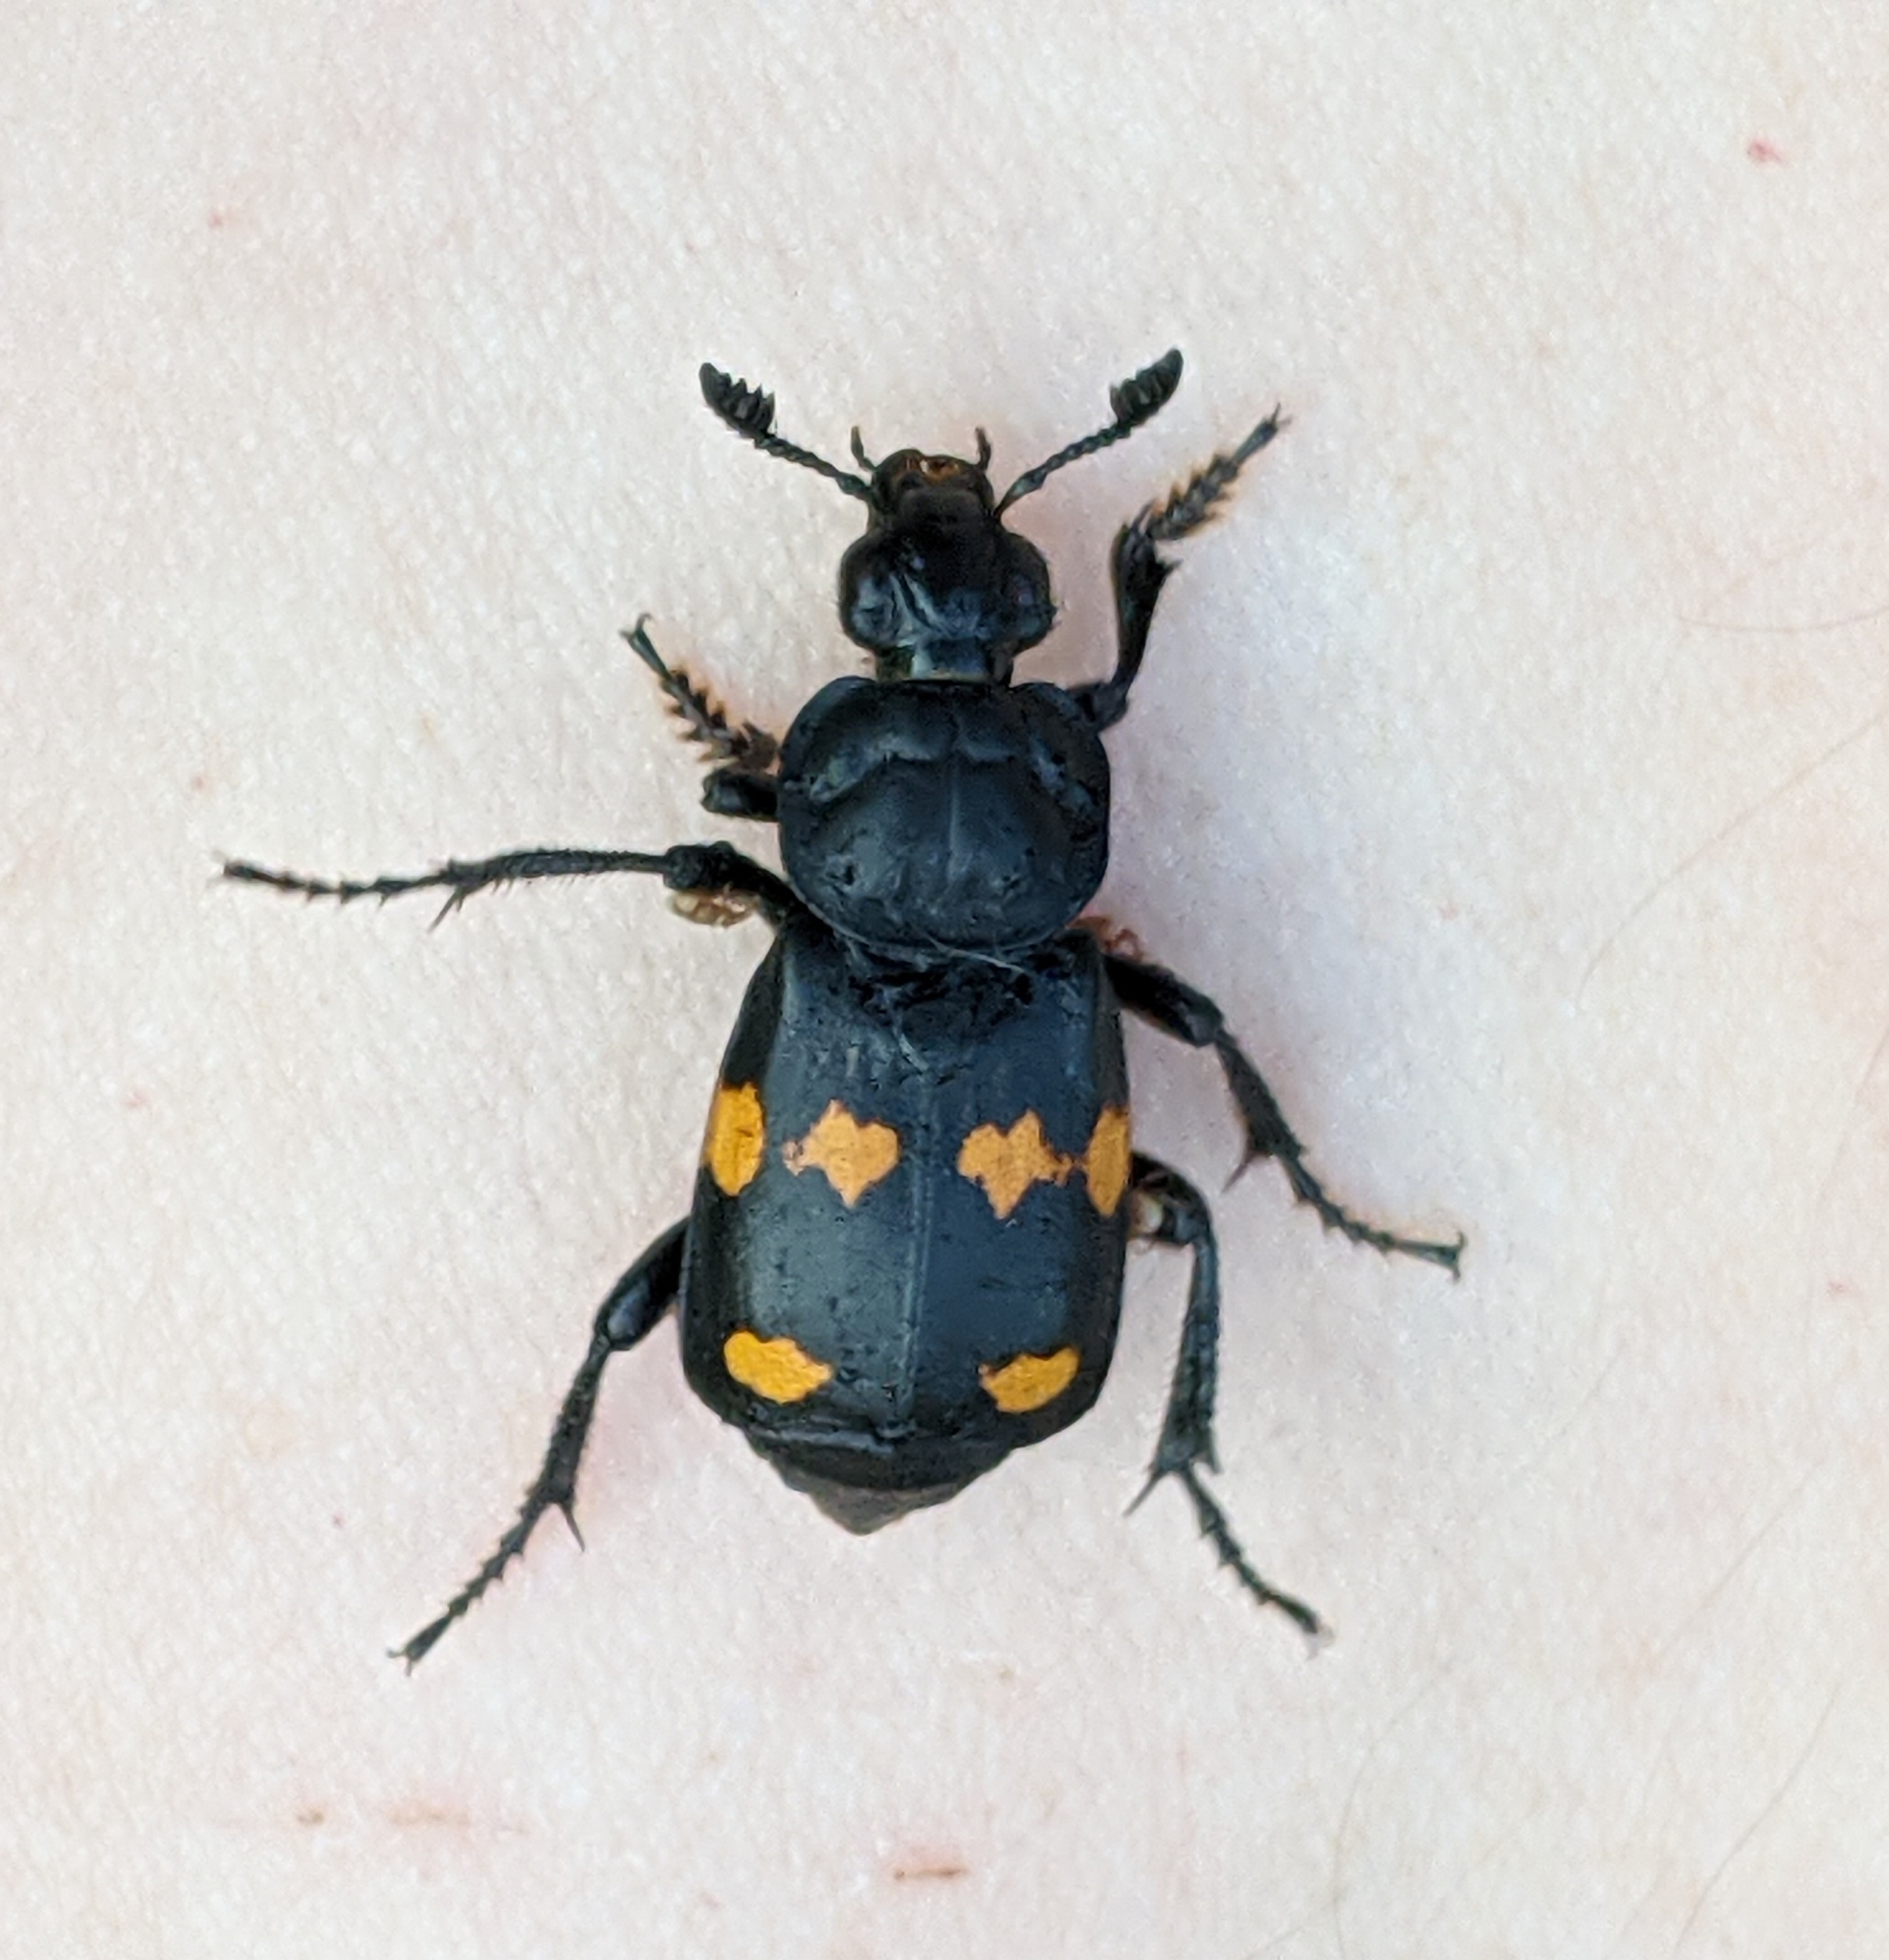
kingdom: Animalia
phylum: Arthropoda
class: Insecta
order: Coleoptera
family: Staphylinidae
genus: Nicrophorus
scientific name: Nicrophorus defodiens
